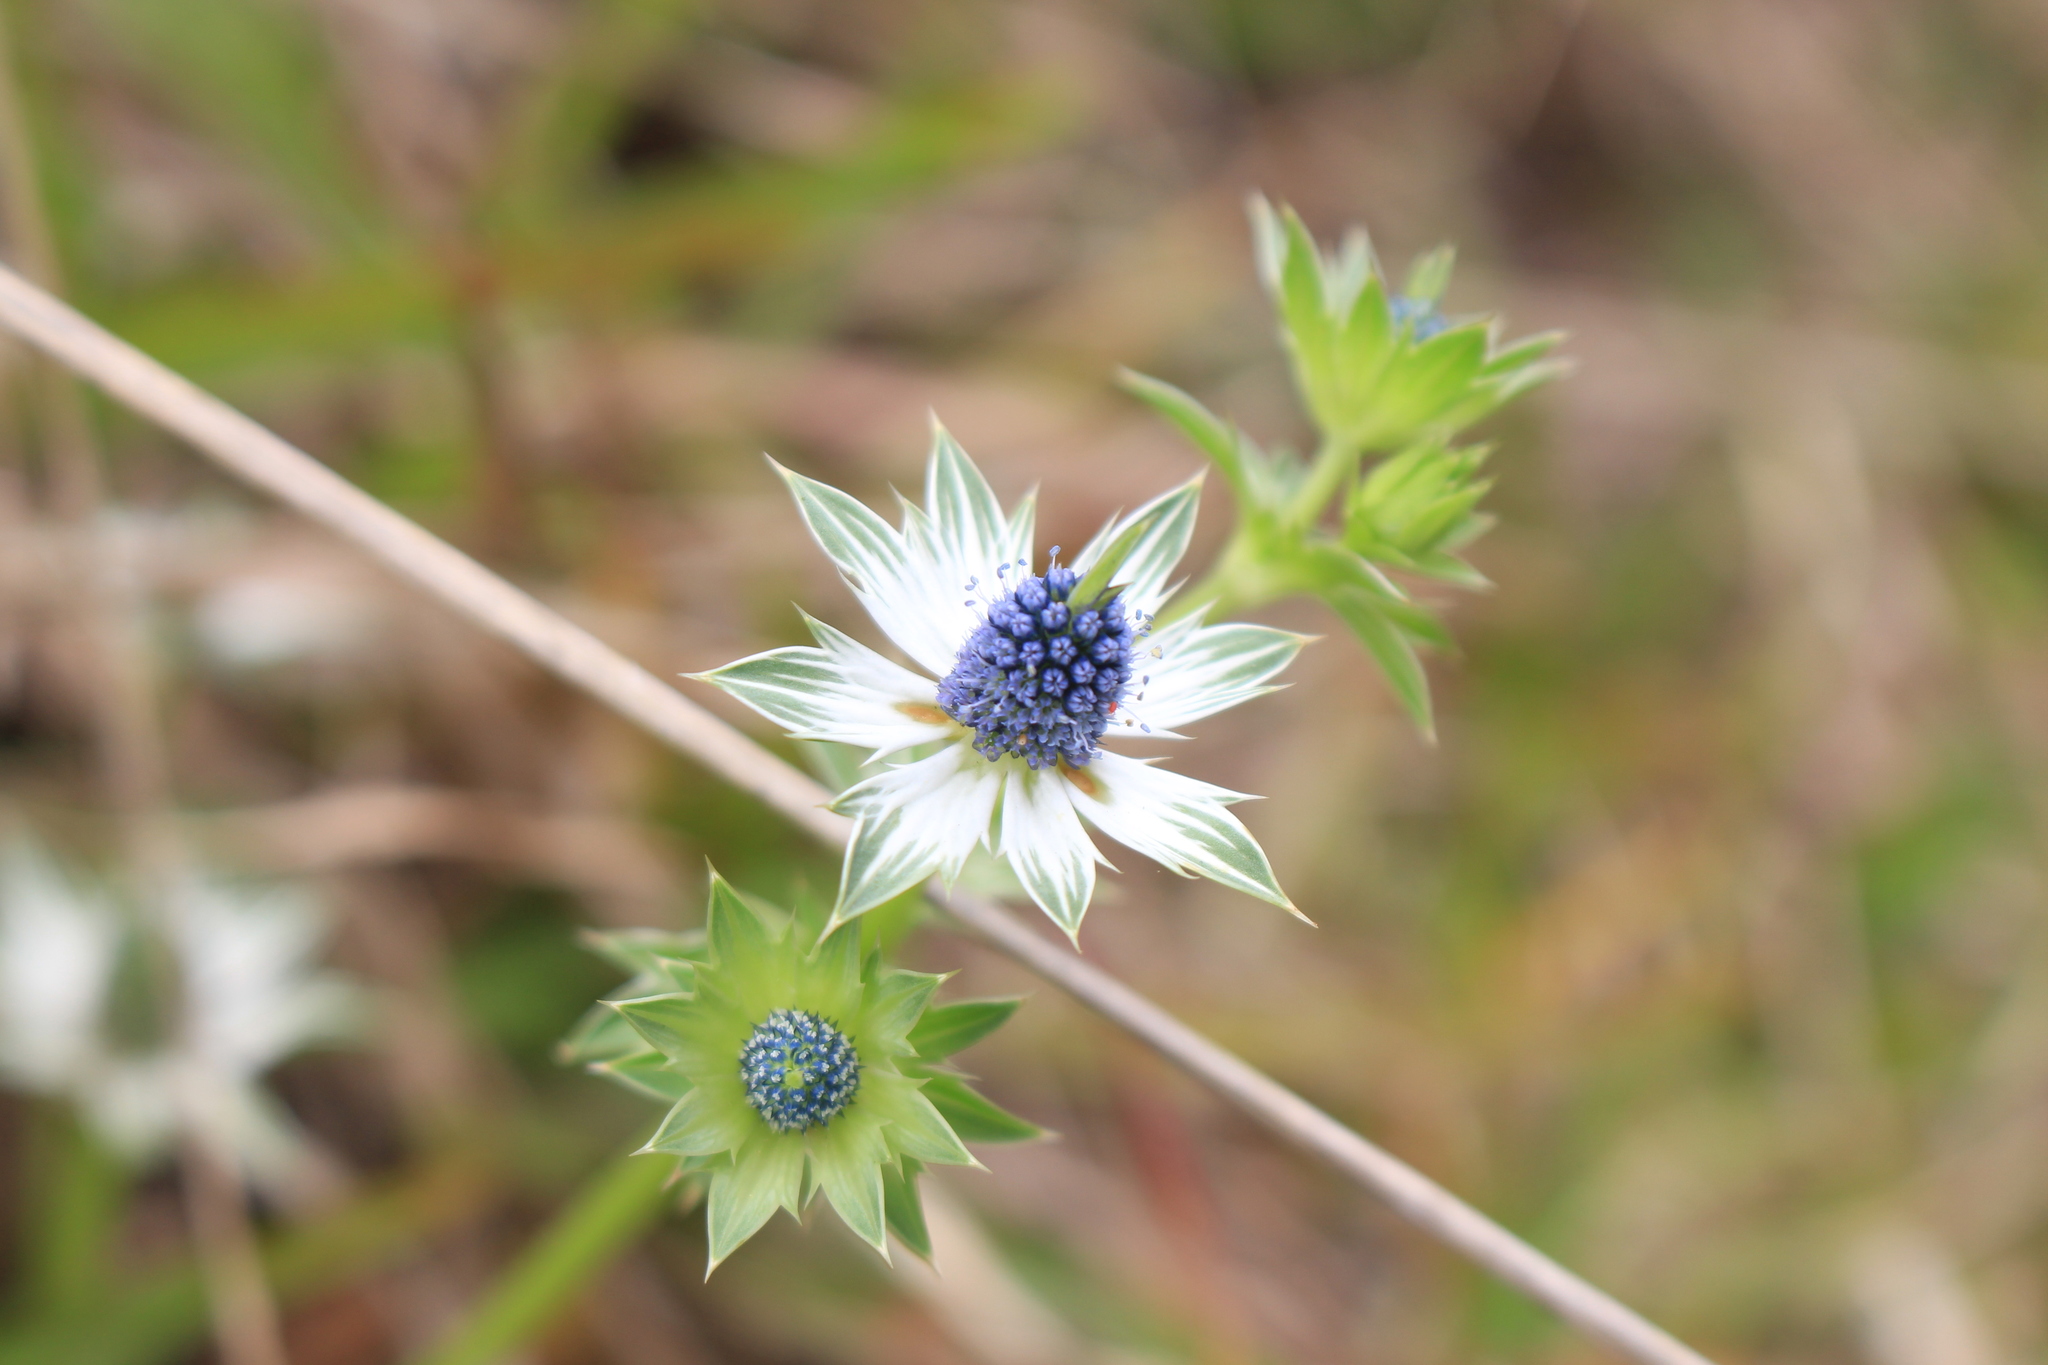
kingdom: Plantae
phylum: Tracheophyta
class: Magnoliopsida
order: Apiales
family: Apiaceae
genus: Eryngium
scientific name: Eryngium carlinae
